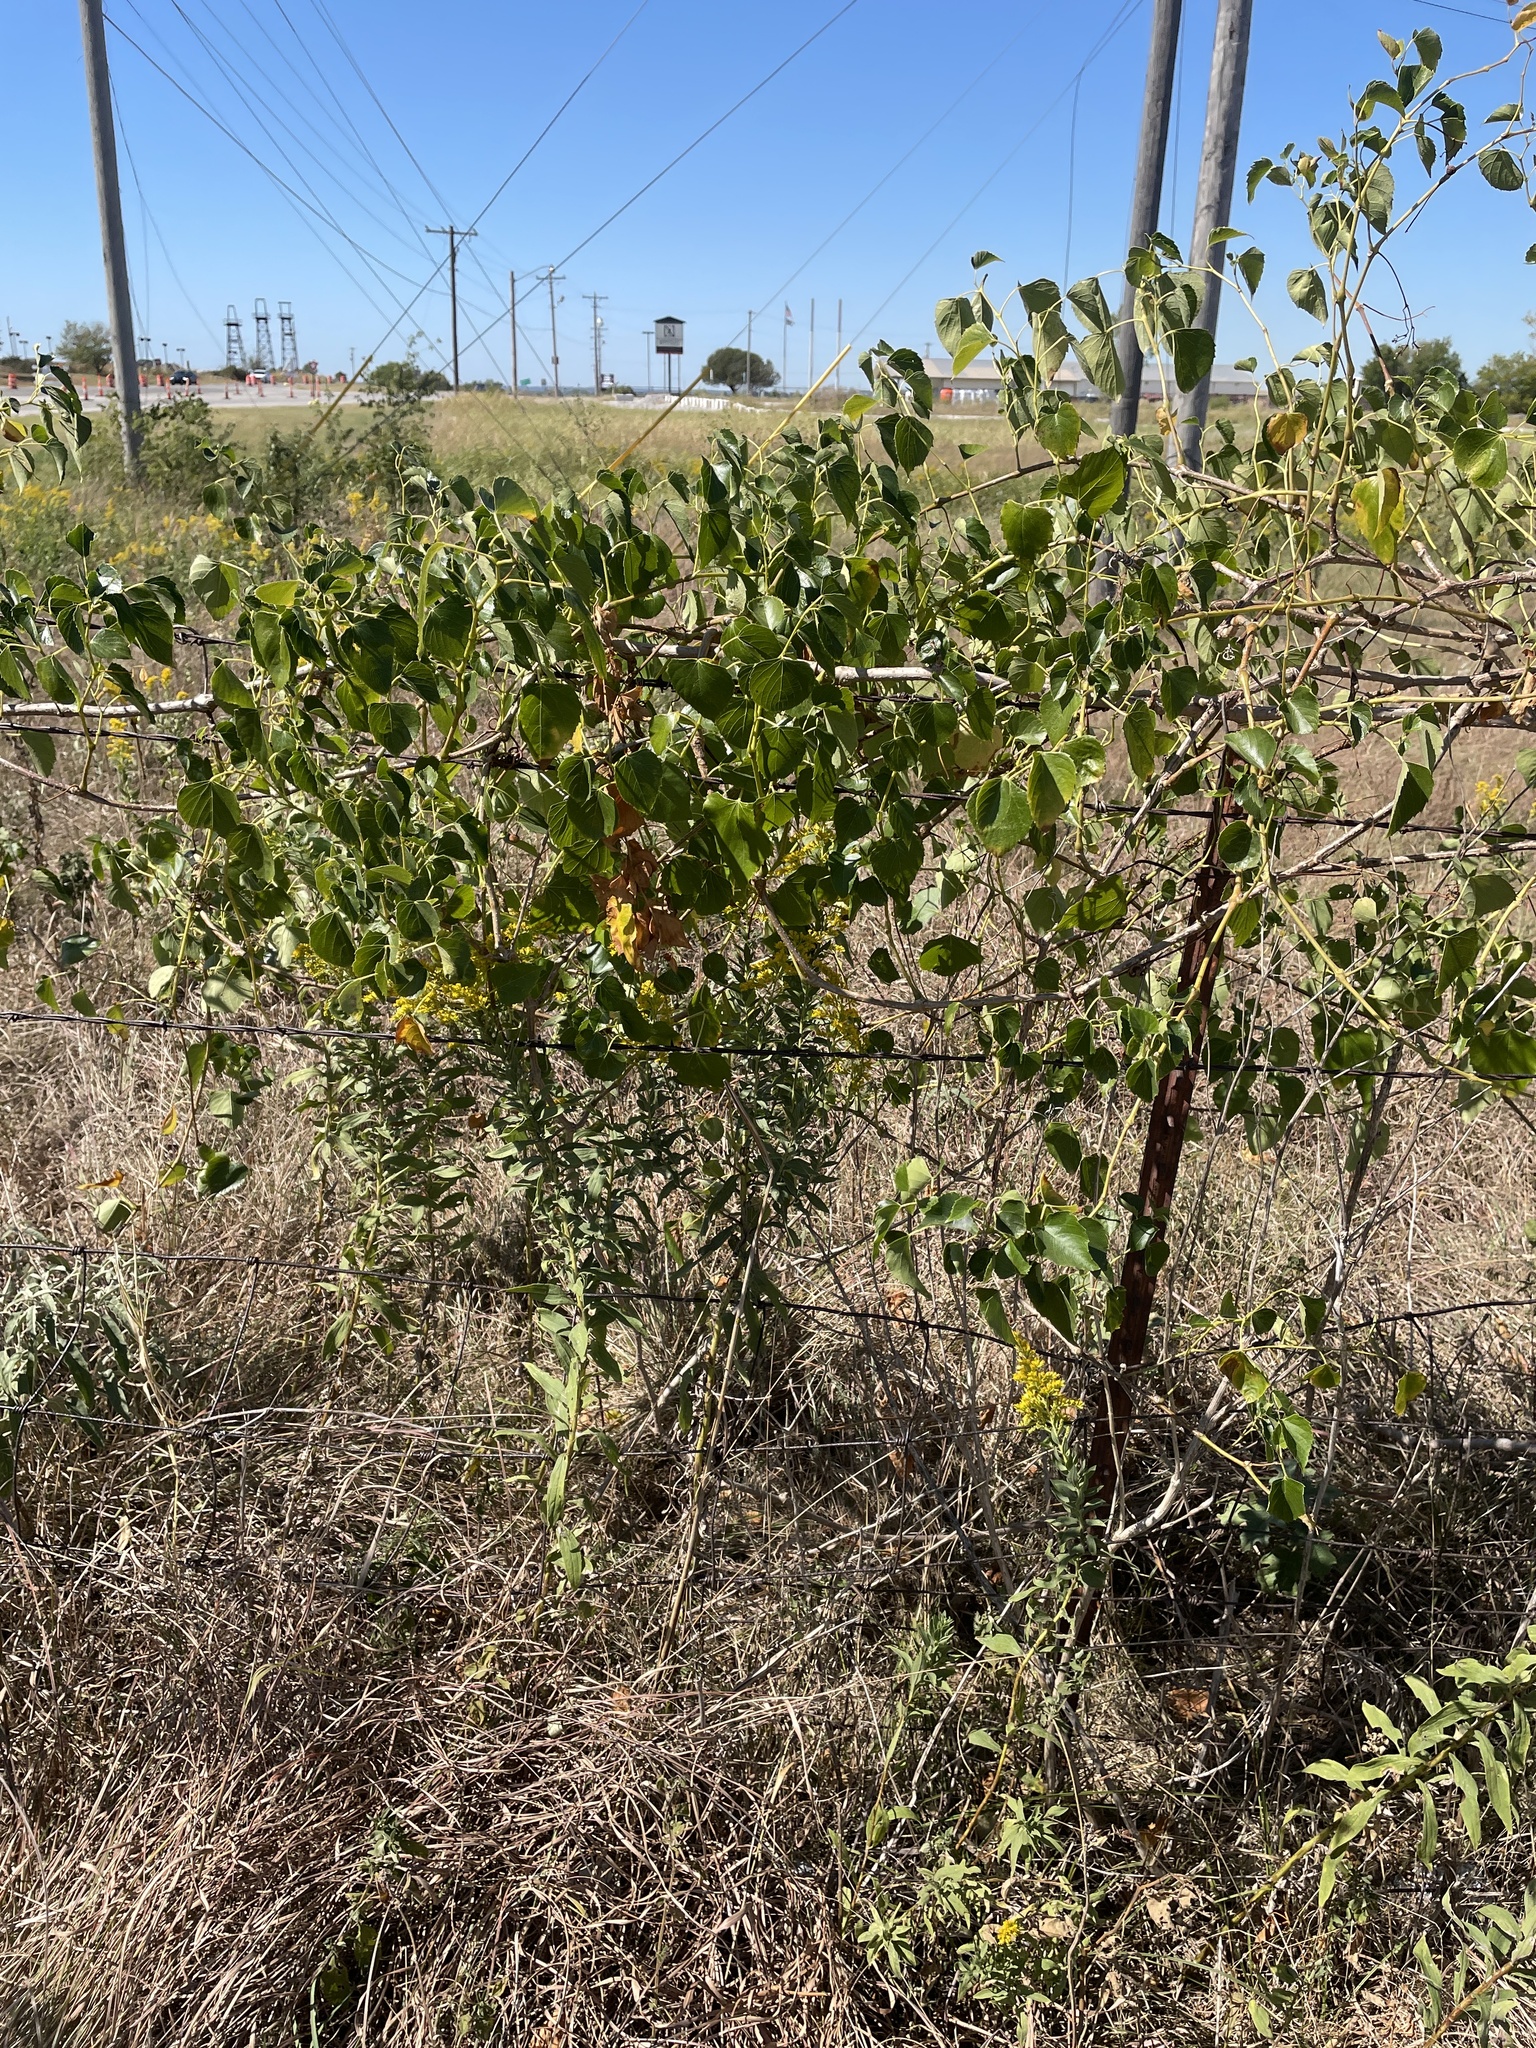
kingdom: Plantae
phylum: Tracheophyta
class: Magnoliopsida
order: Vitales
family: Vitaceae
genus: Ampelopsis
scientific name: Ampelopsis cordata
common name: Heart-leaf ampelopsis
